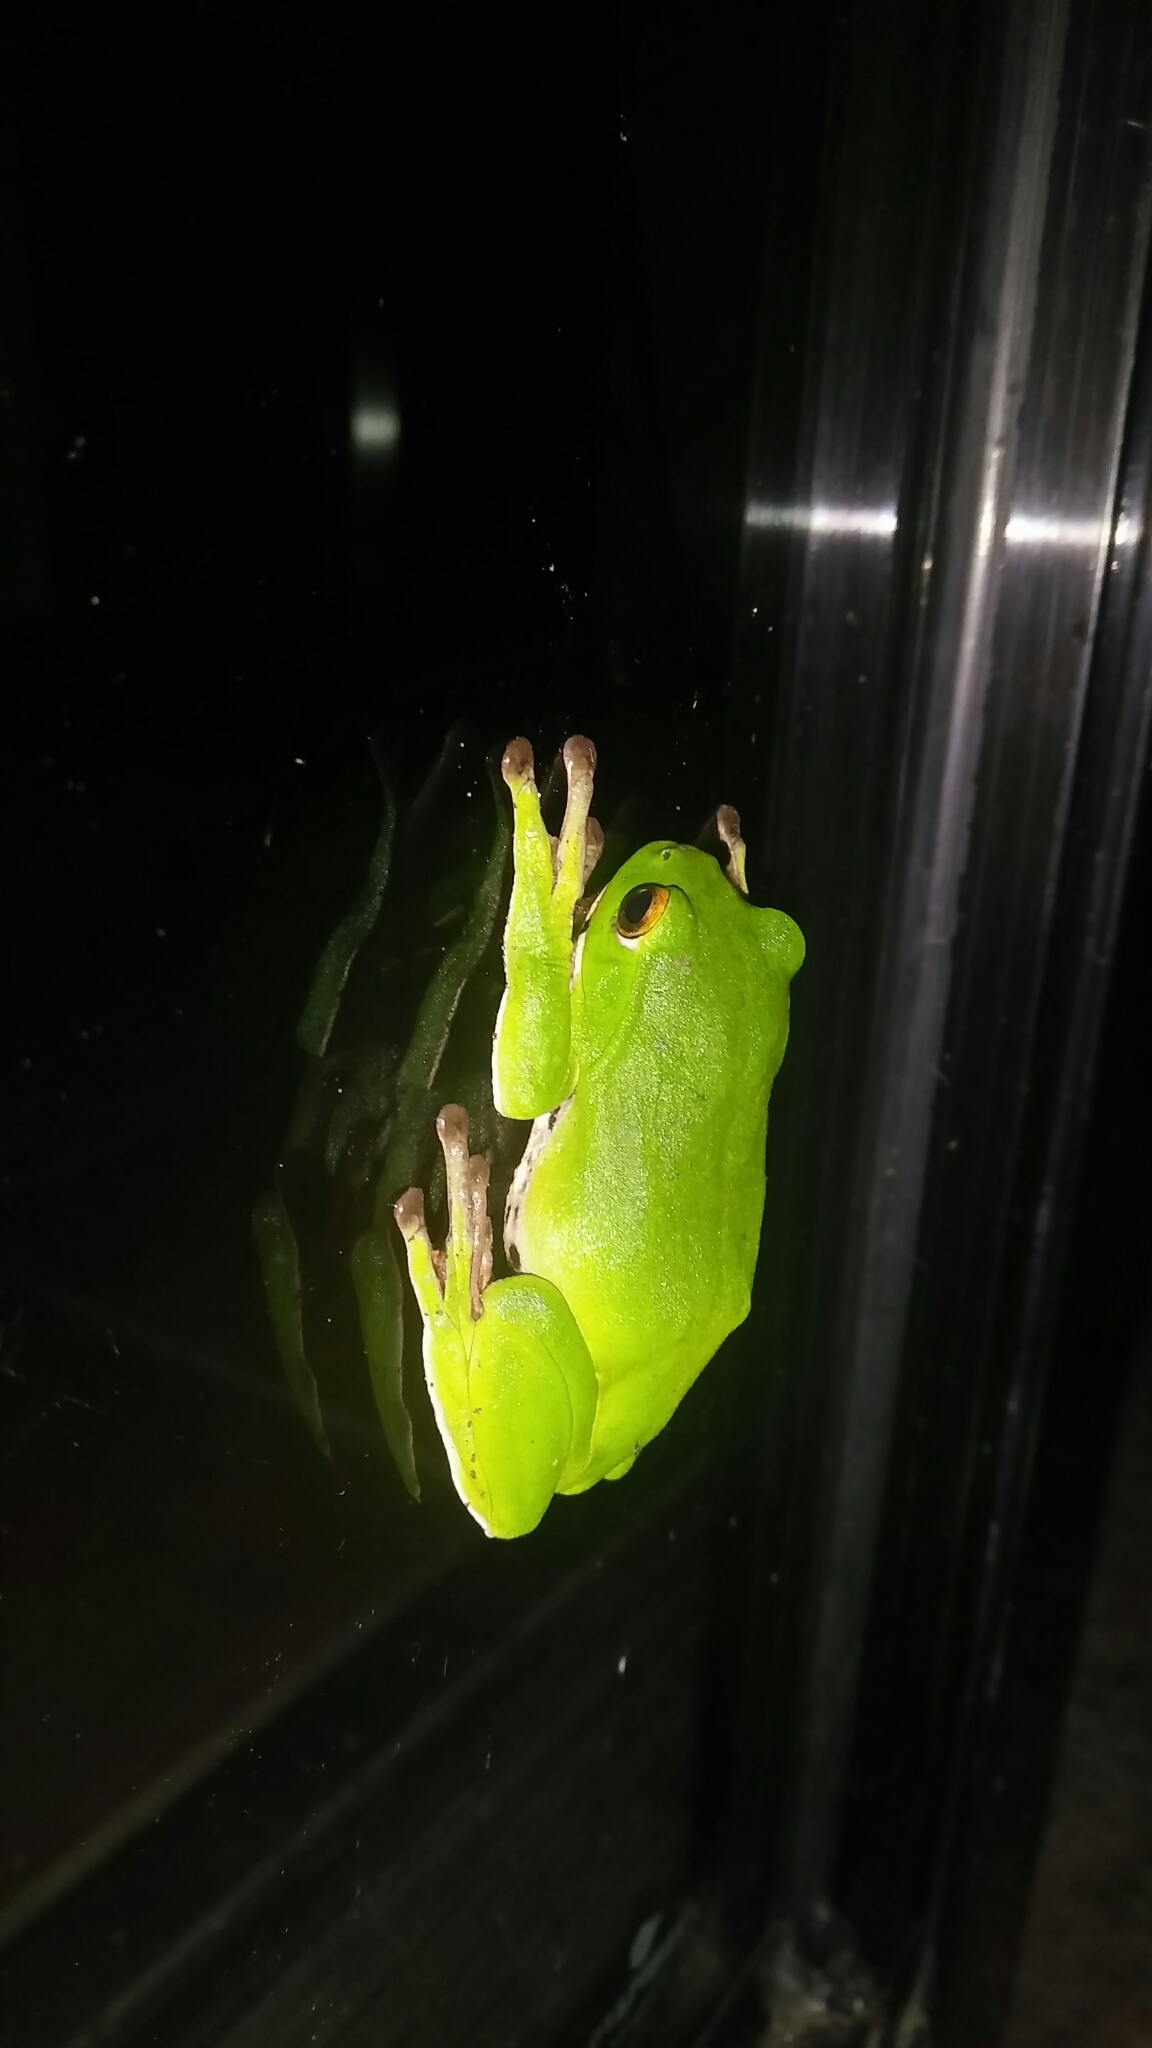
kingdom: Animalia
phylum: Chordata
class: Amphibia
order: Anura
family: Rhacophoridae
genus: Zhangixalus
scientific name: Zhangixalus moltrechti
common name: Moltrecht's treefrog
